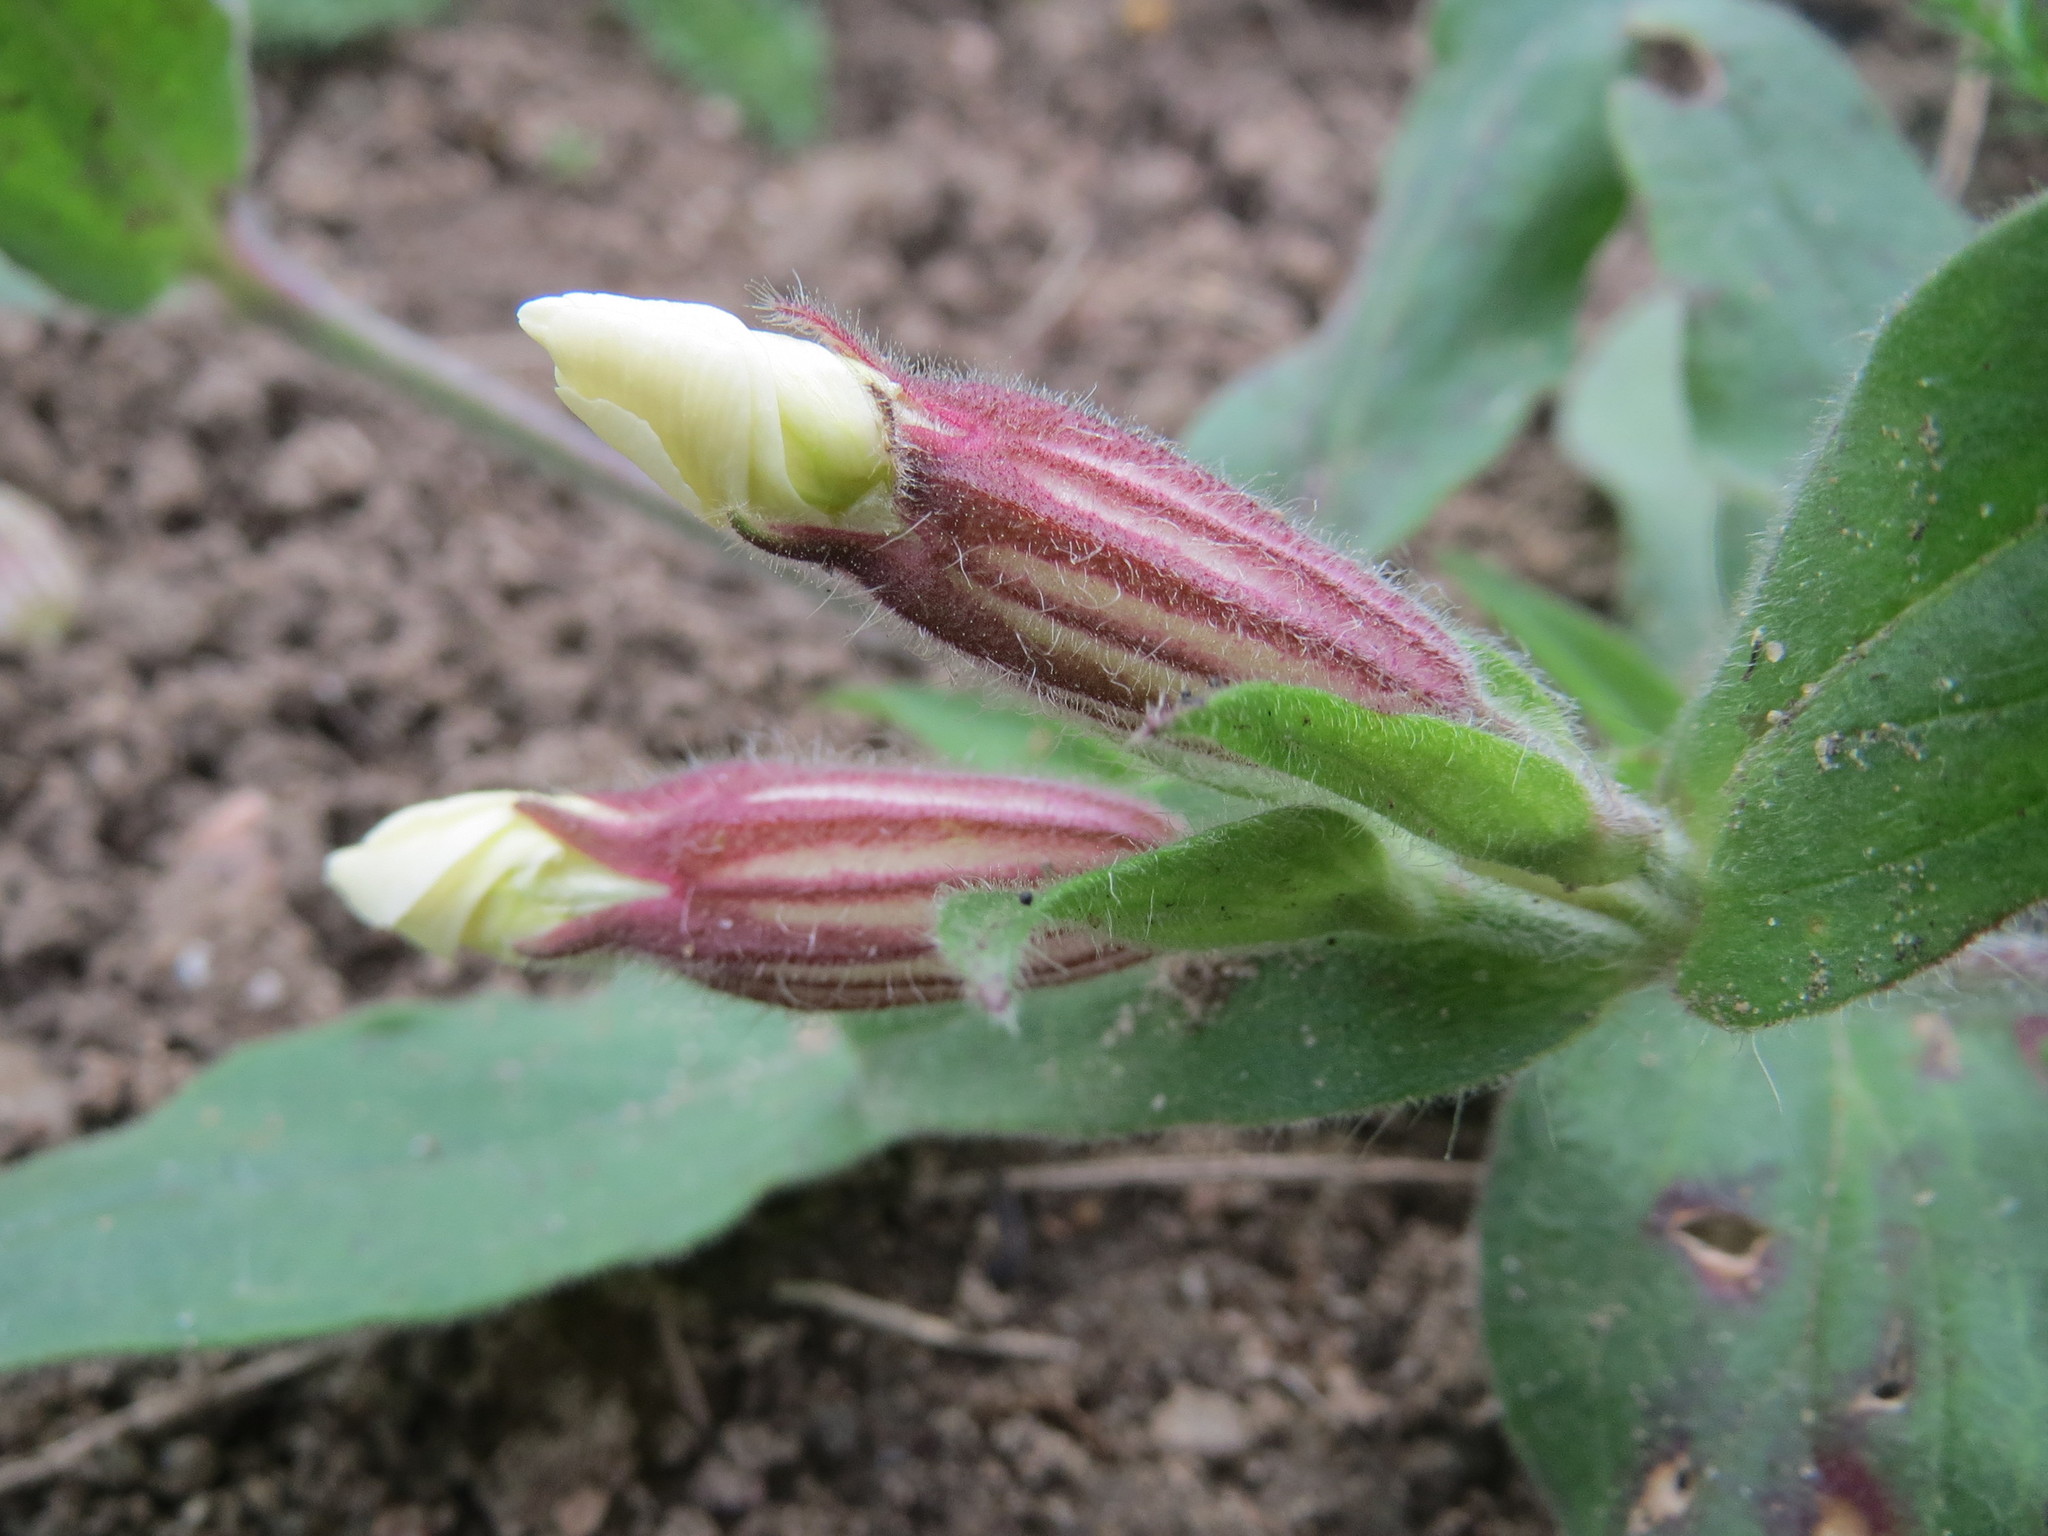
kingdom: Plantae
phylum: Tracheophyta
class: Magnoliopsida
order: Caryophyllales
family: Caryophyllaceae
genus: Silene
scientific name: Silene latifolia
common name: White campion
